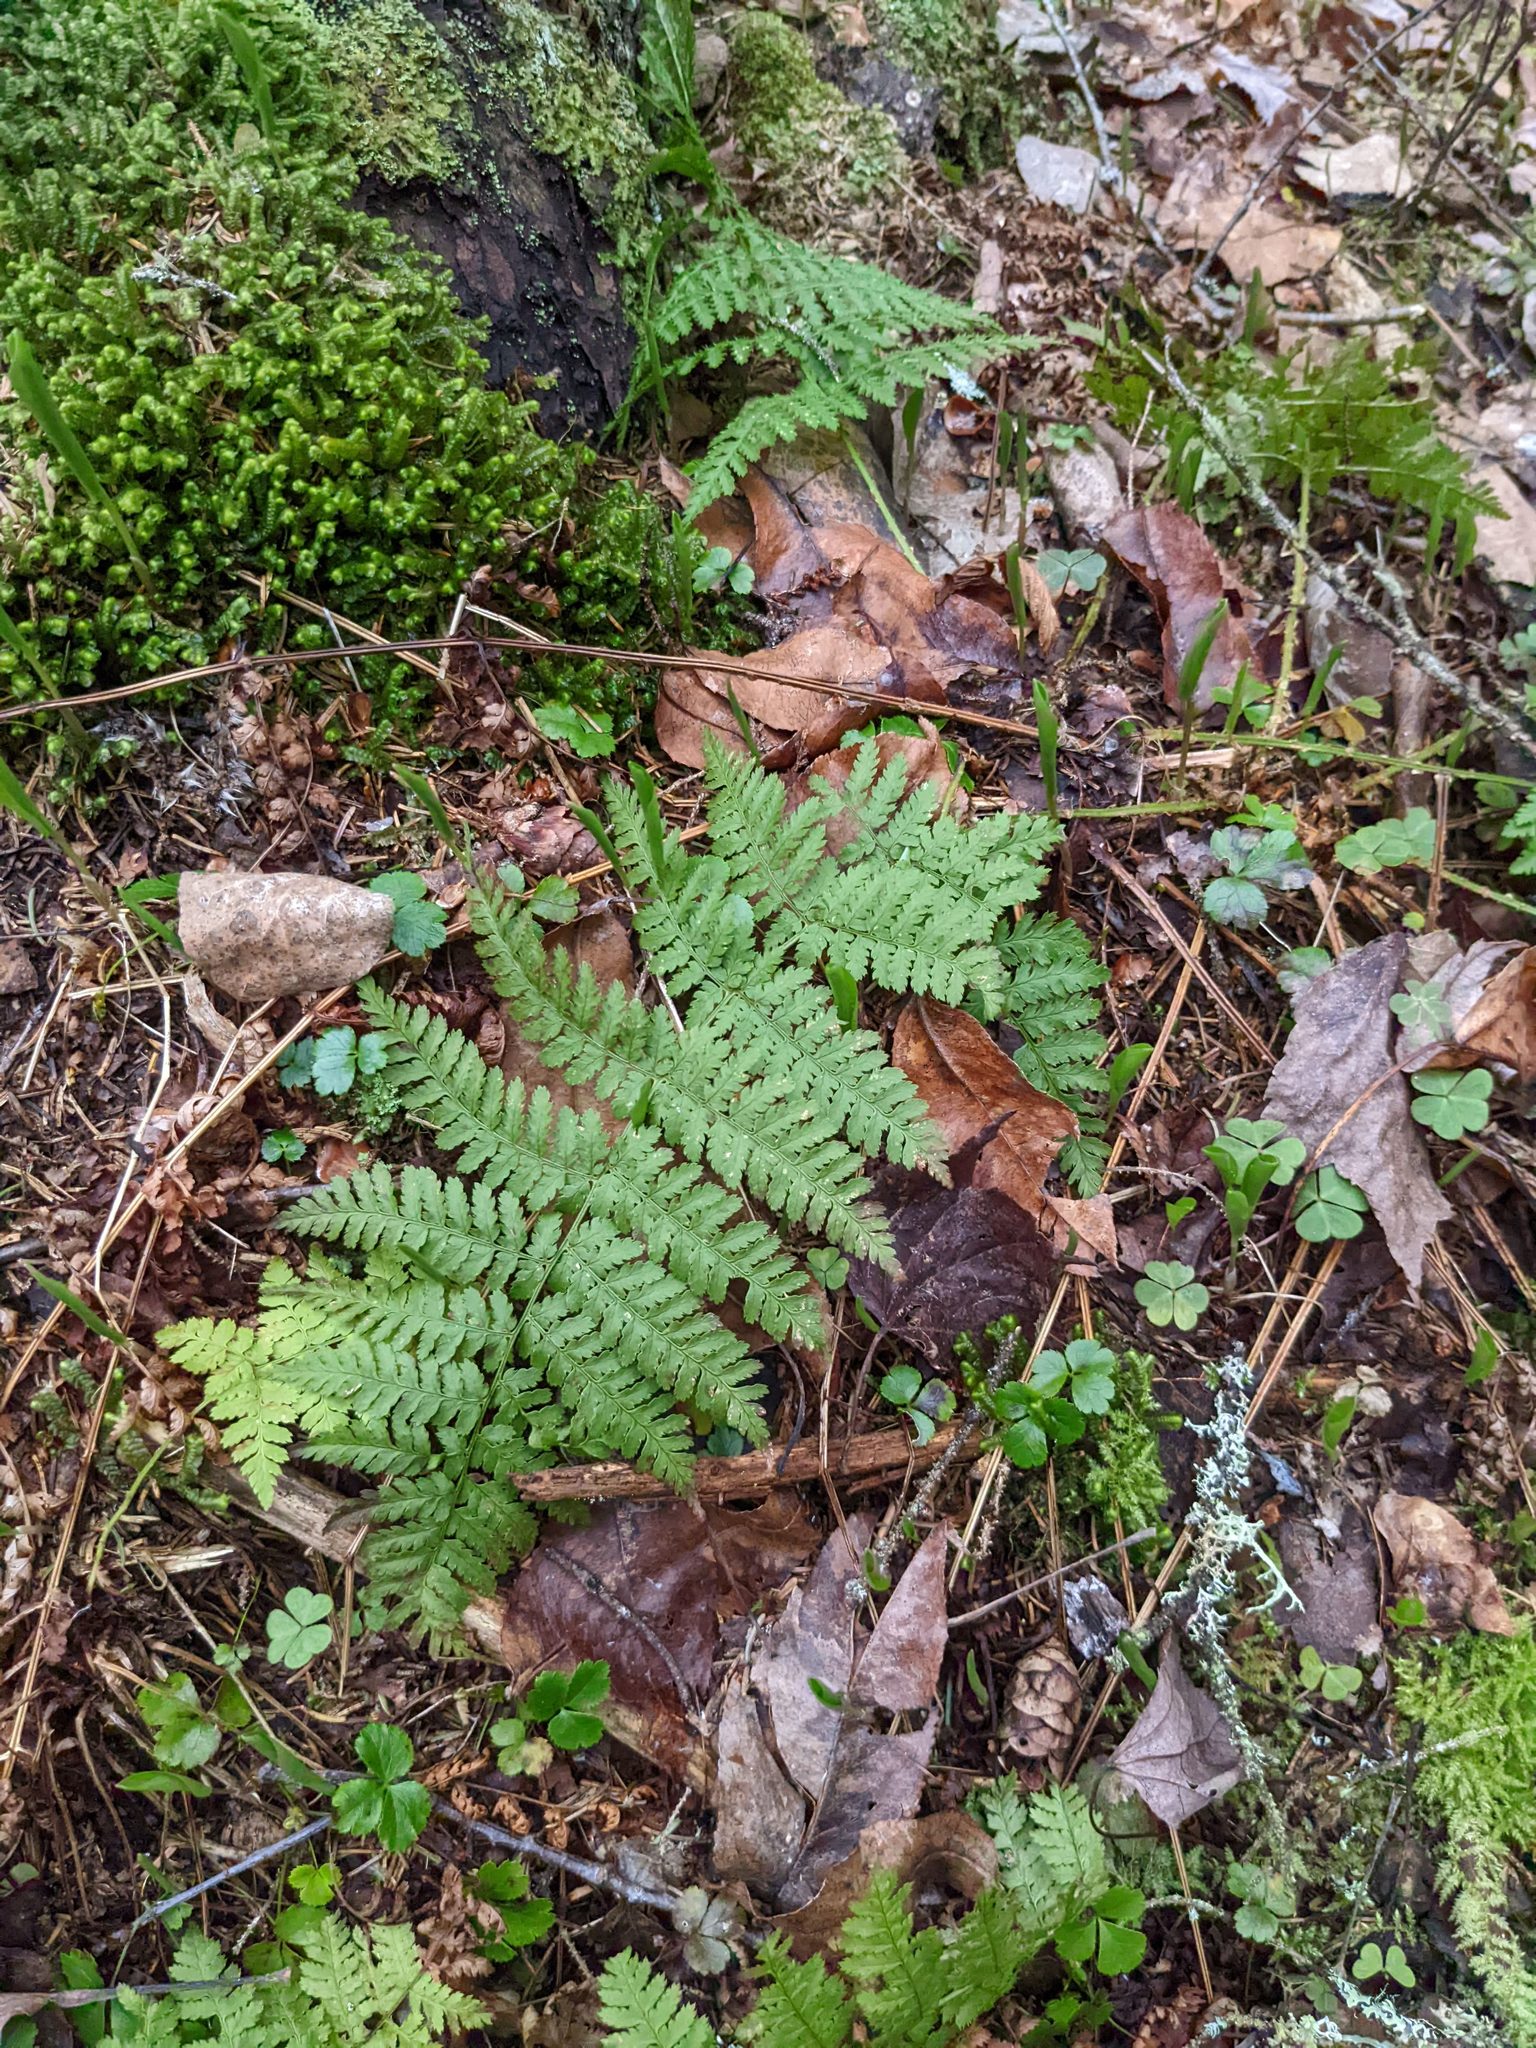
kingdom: Plantae
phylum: Tracheophyta
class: Polypodiopsida
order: Polypodiales
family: Dryopteridaceae
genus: Dryopteris
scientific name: Dryopteris intermedia
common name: Evergreen wood fern
